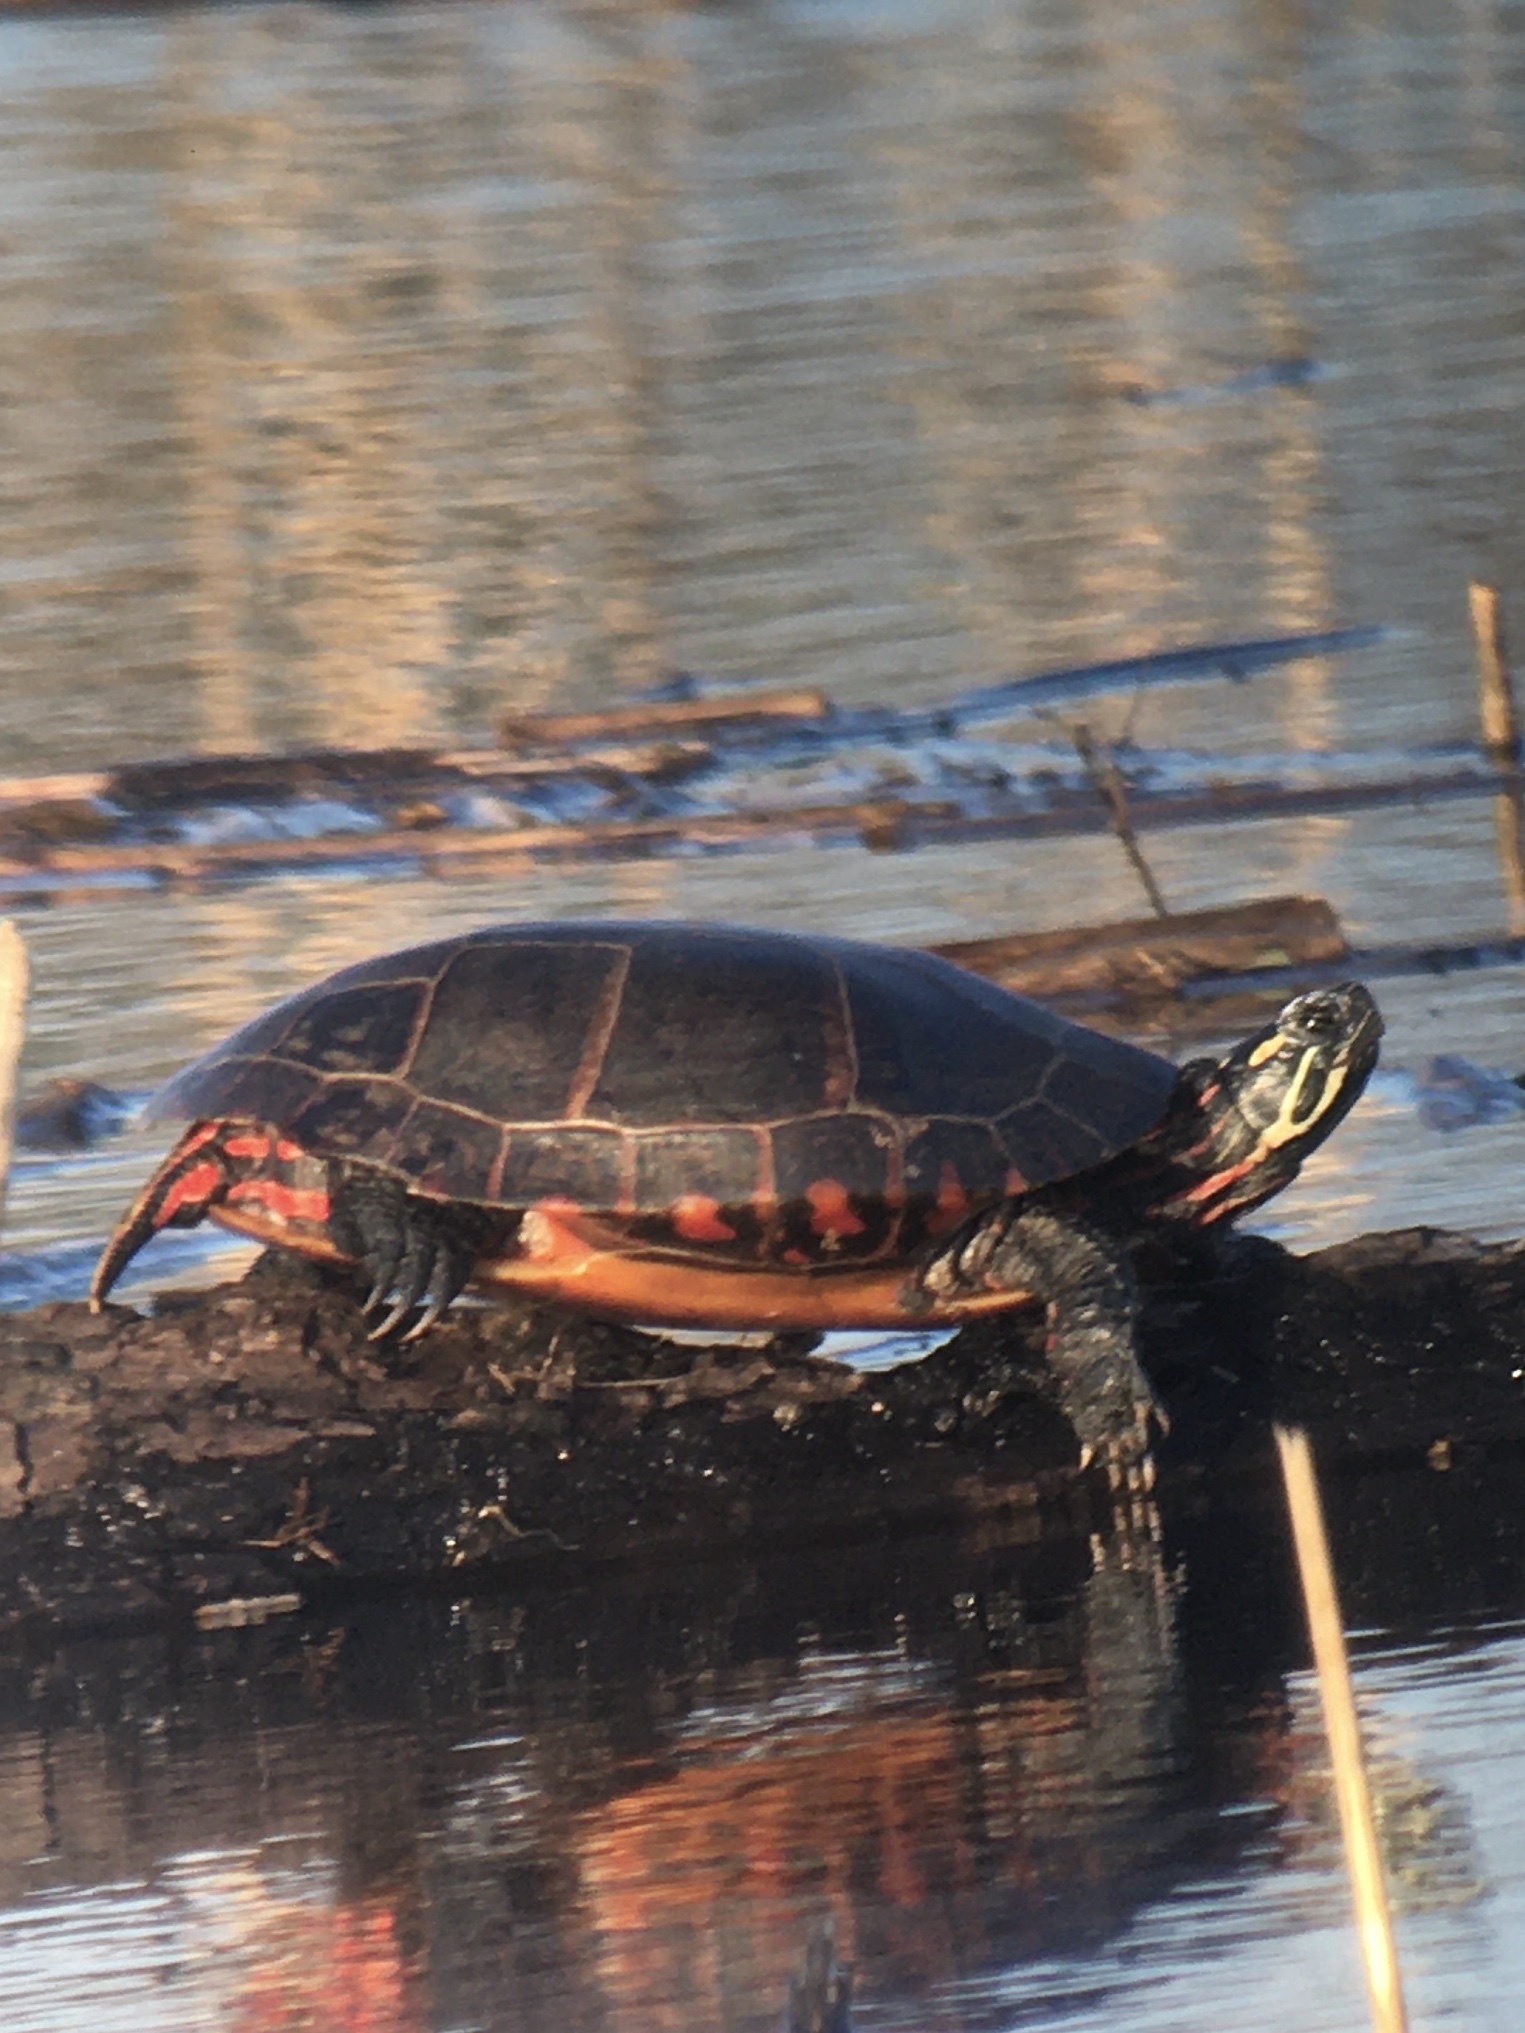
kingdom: Animalia
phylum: Chordata
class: Testudines
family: Emydidae
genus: Chrysemys
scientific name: Chrysemys picta
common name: Painted turtle
